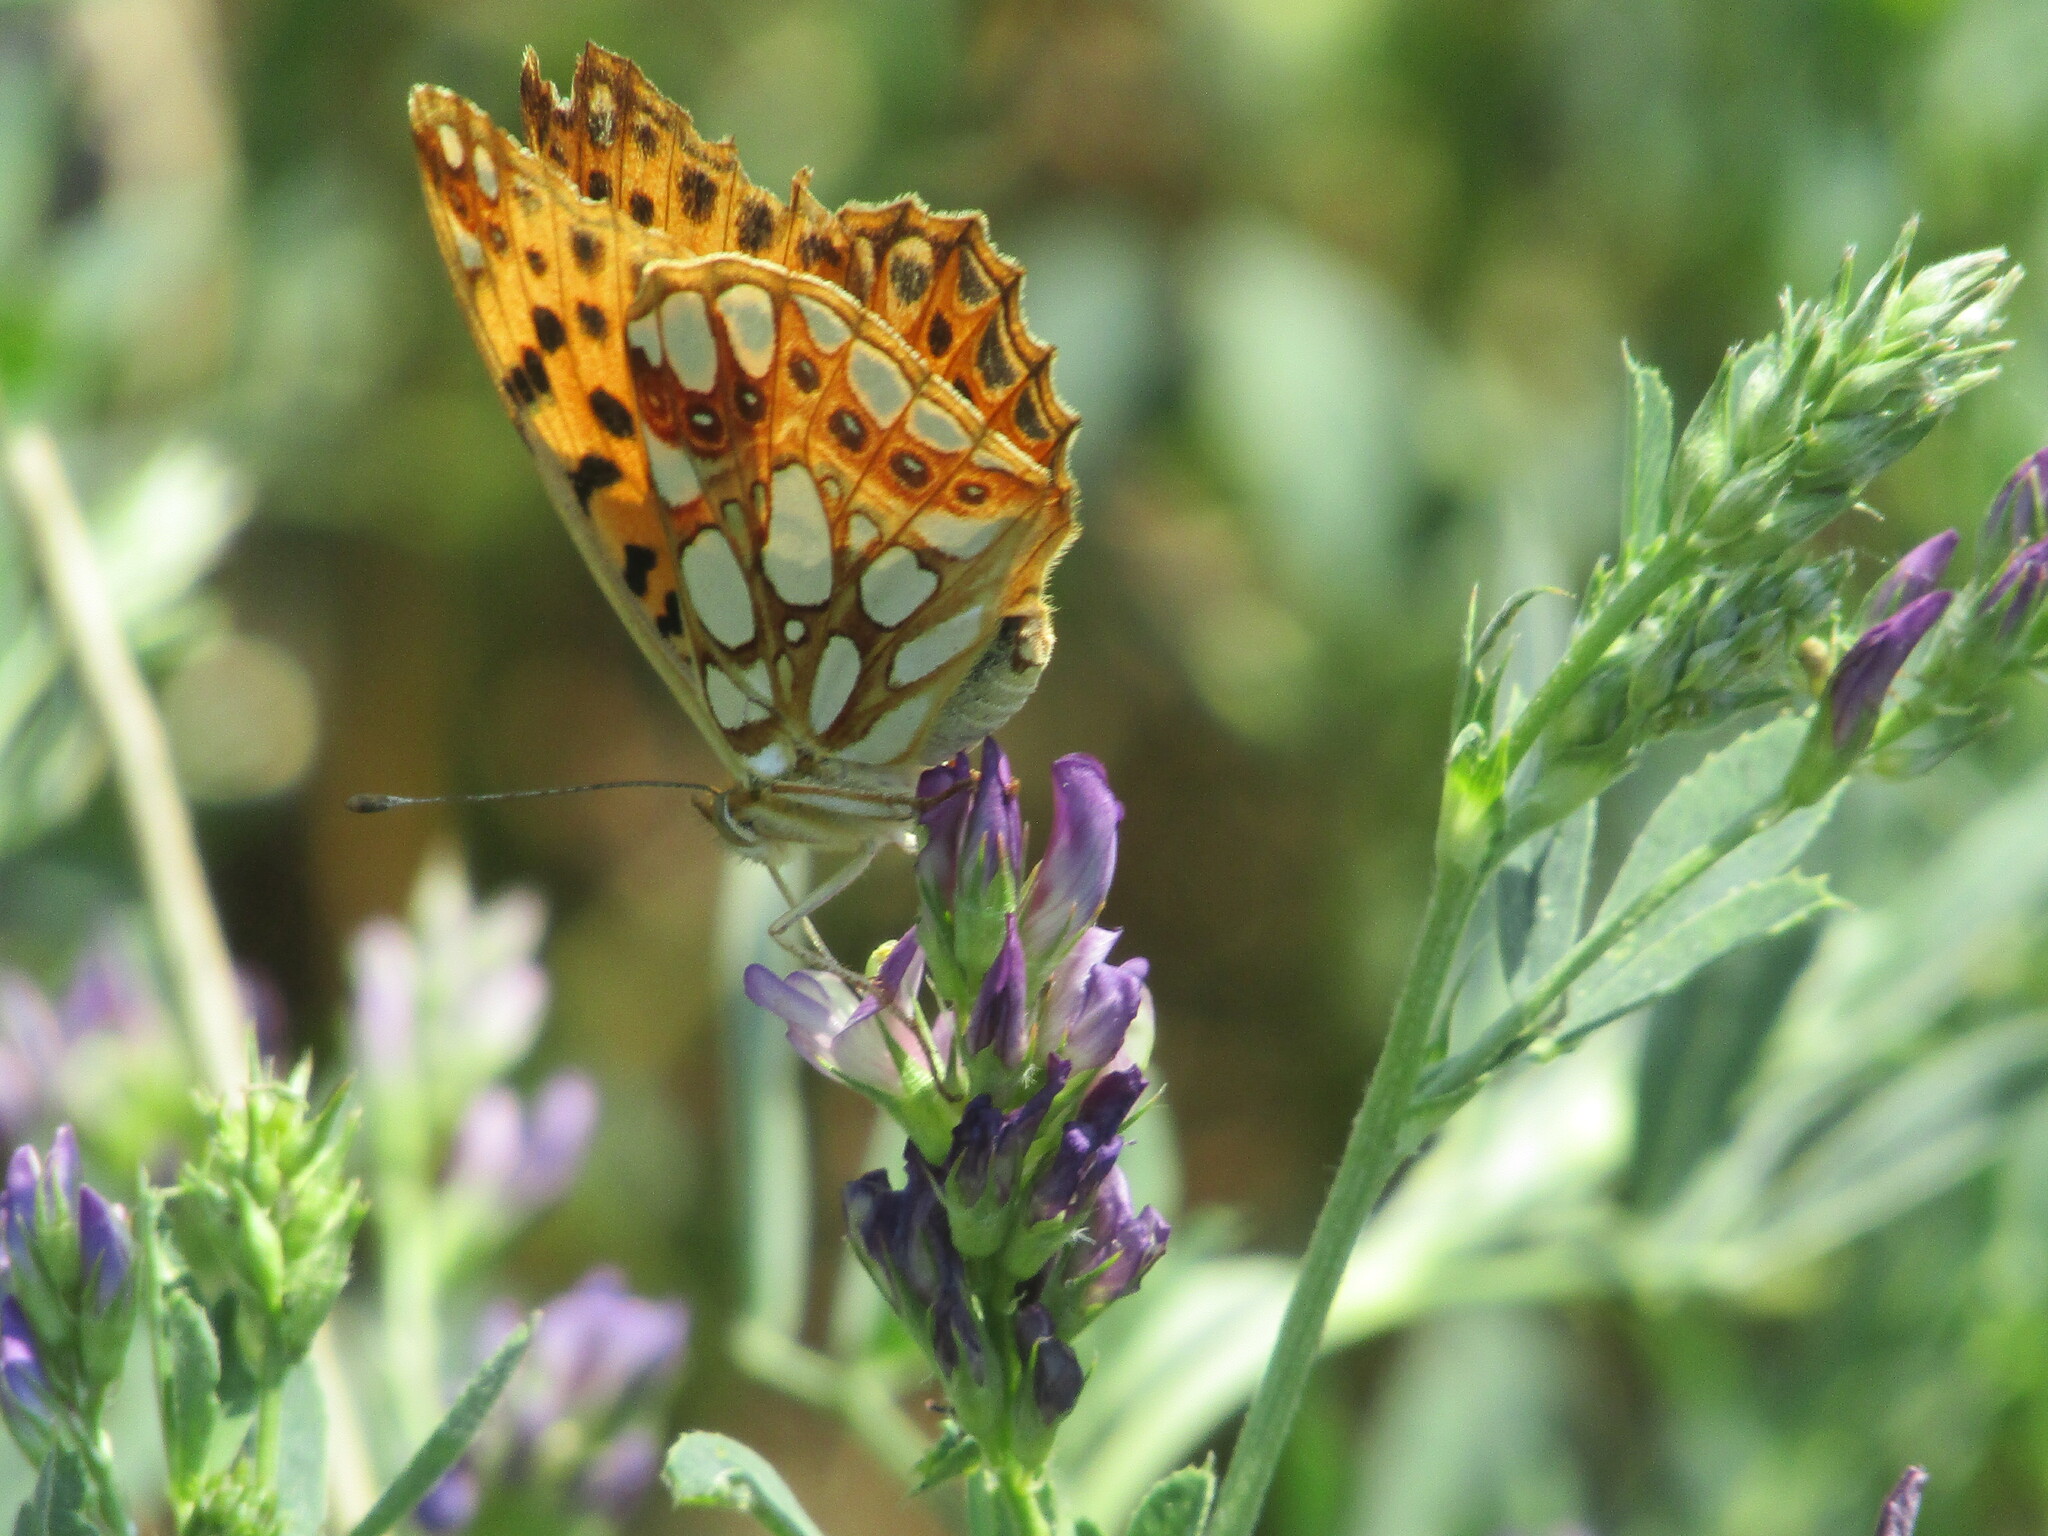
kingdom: Animalia
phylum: Arthropoda
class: Insecta
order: Lepidoptera
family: Nymphalidae
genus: Issoria
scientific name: Issoria lathonia
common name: Queen of spain fritillary
